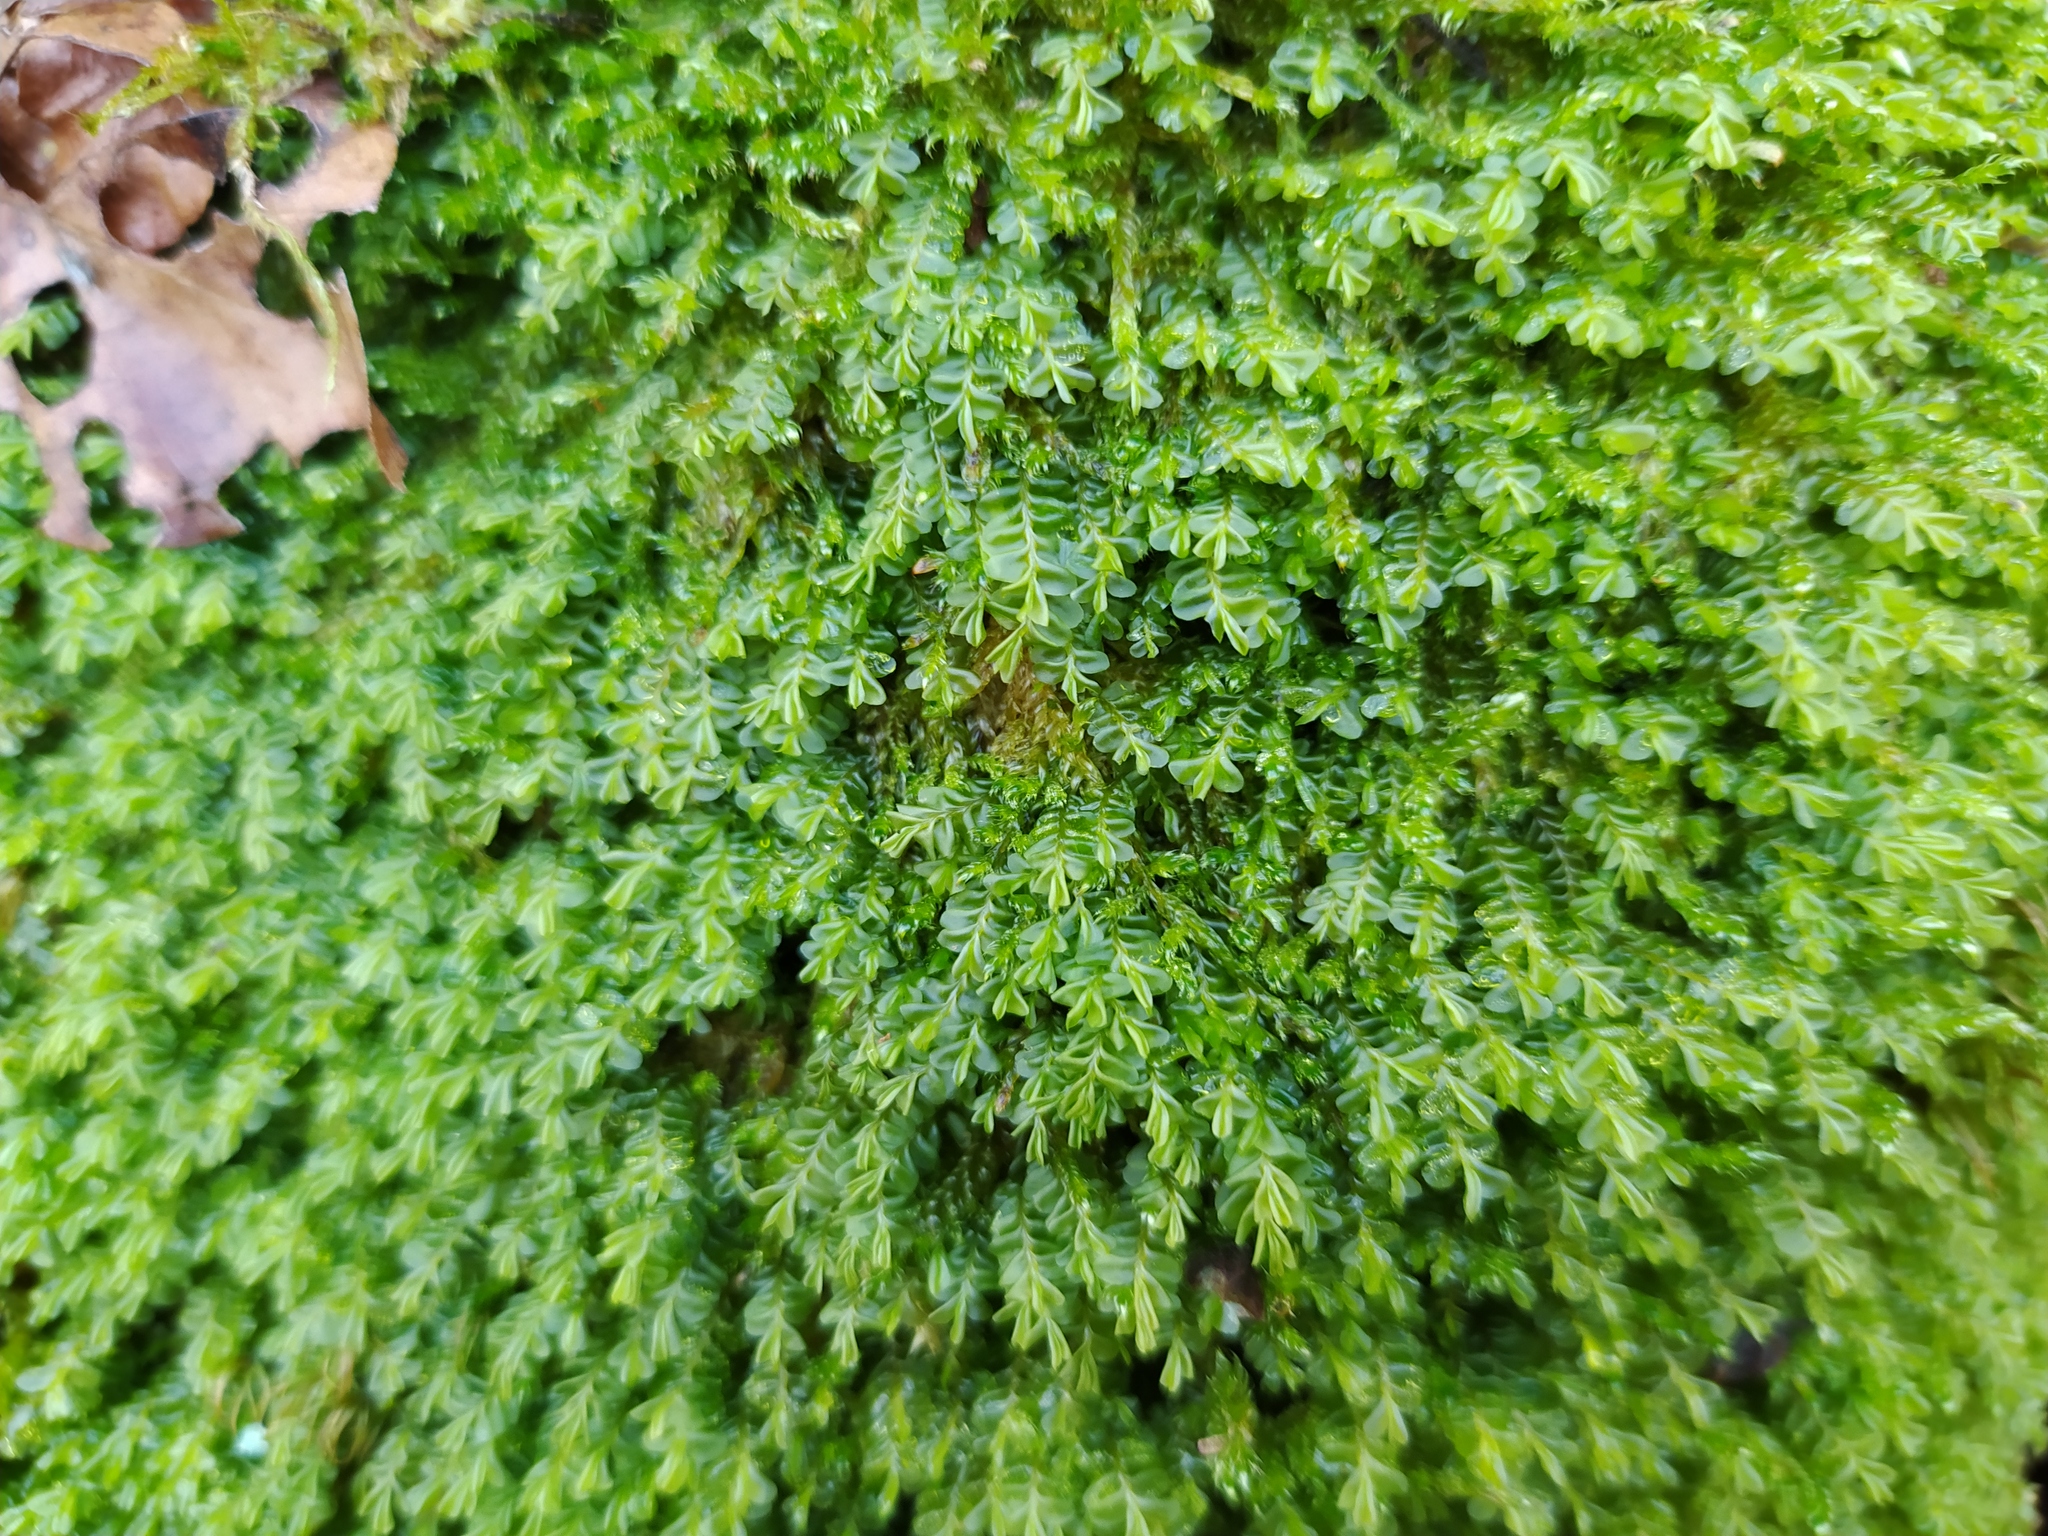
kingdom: Plantae
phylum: Marchantiophyta
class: Jungermanniopsida
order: Jungermanniales
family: Plagiochilaceae
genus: Plagiochila
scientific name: Plagiochila porelloides
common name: Lesser featherwort
